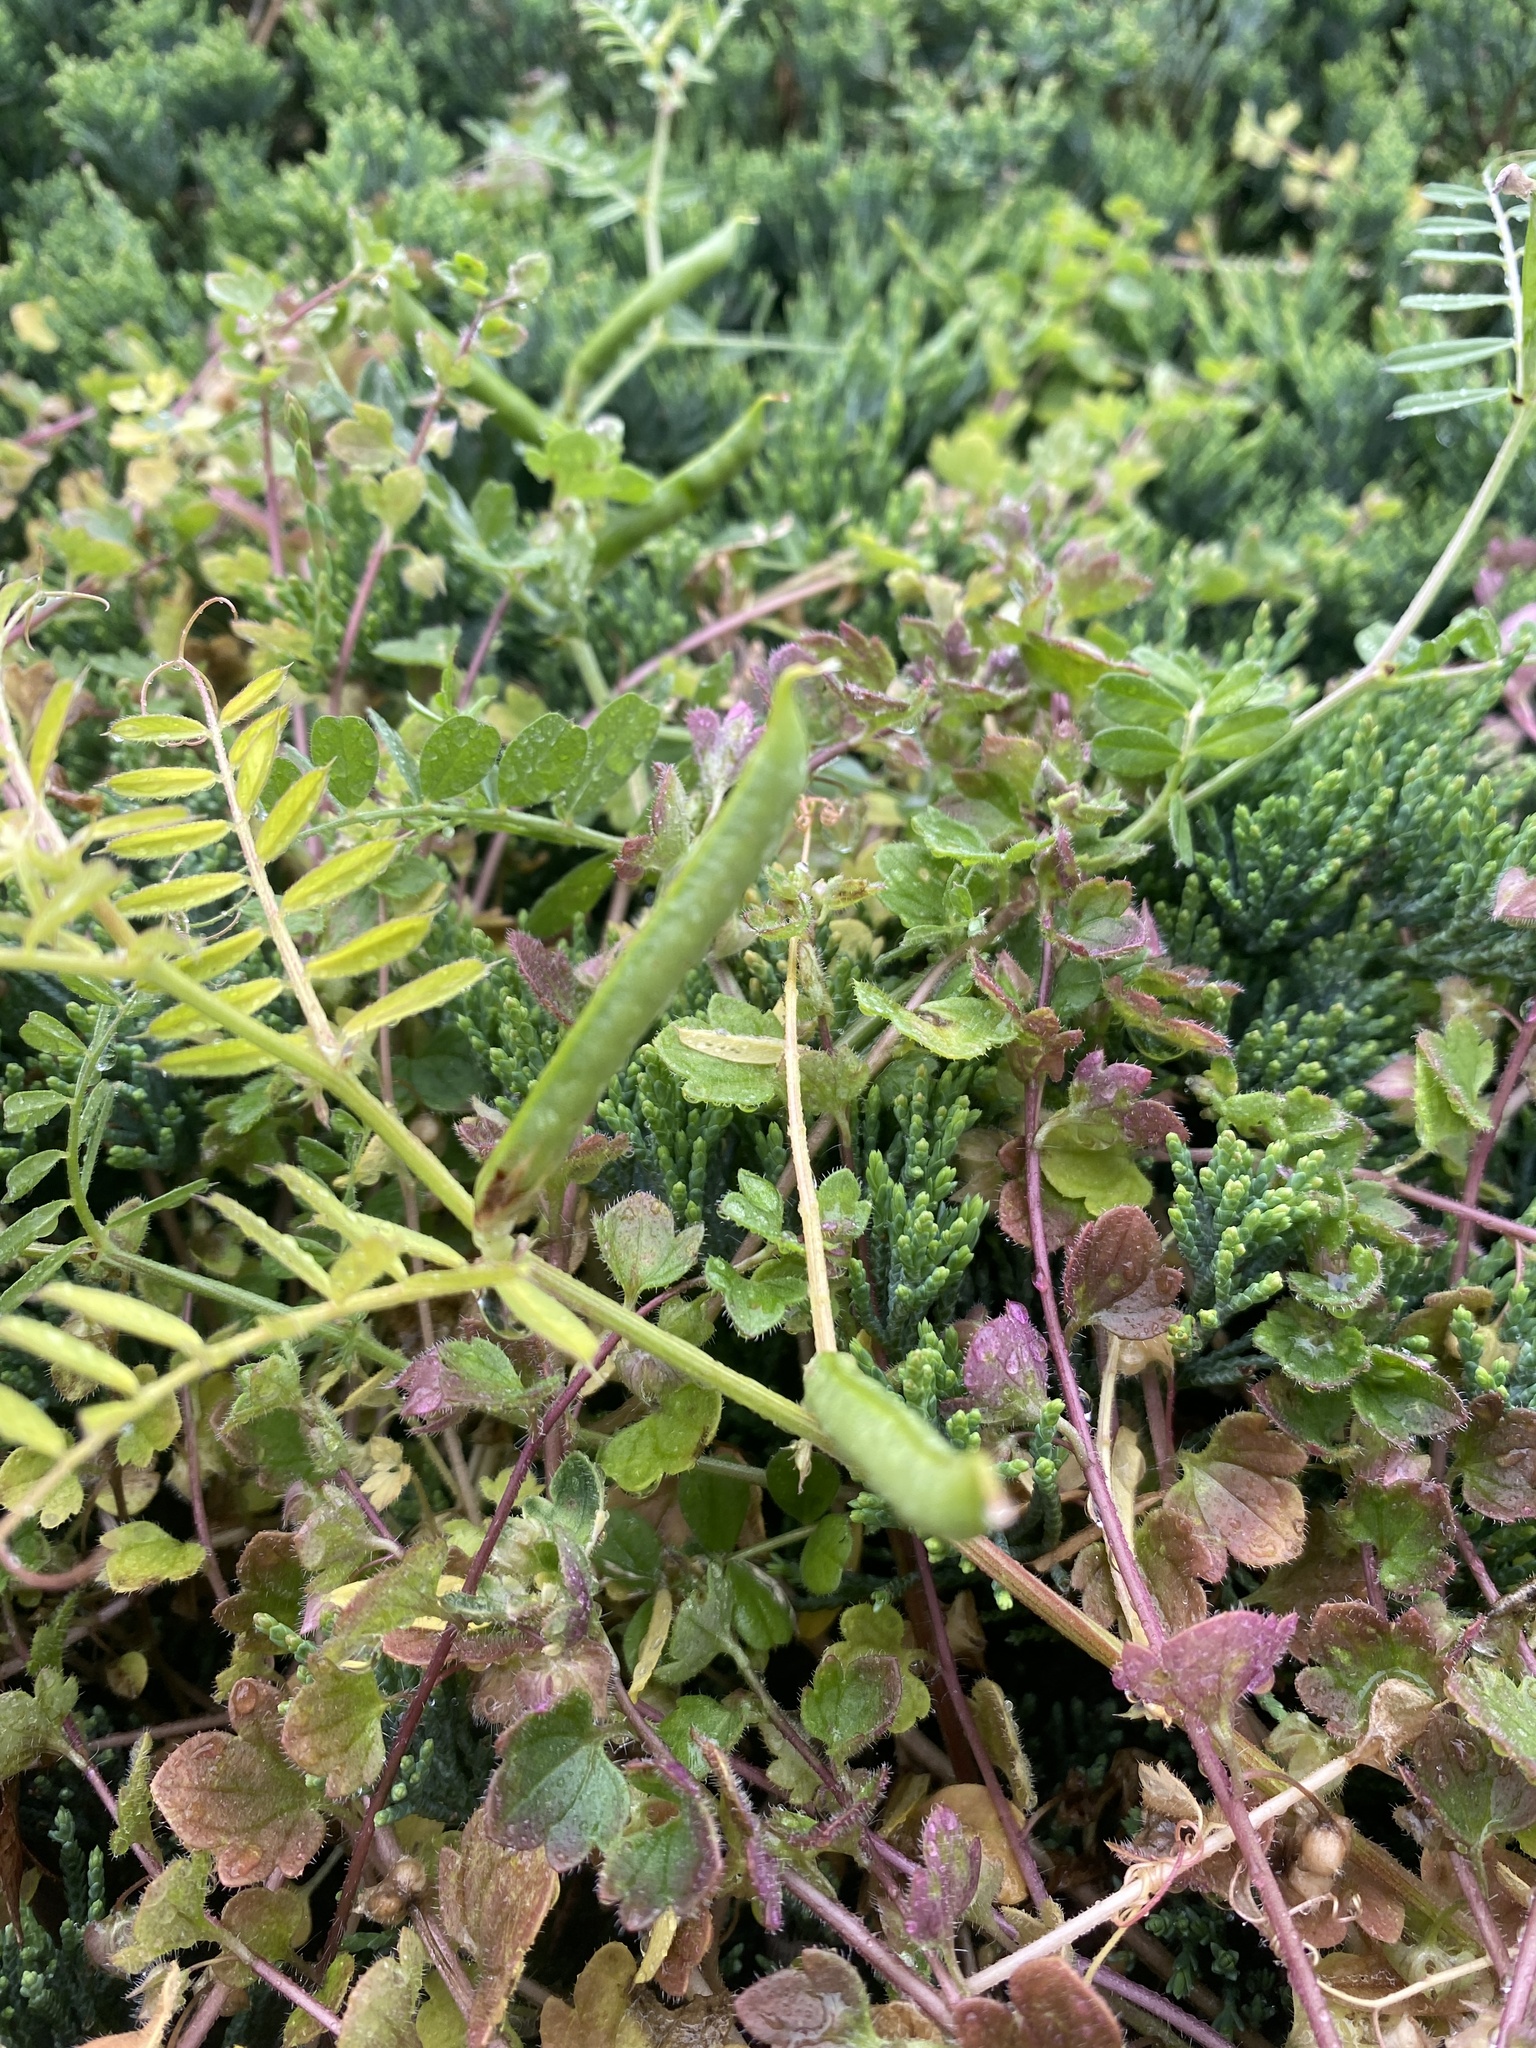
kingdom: Plantae
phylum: Tracheophyta
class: Magnoliopsida
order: Fabales
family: Fabaceae
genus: Vicia
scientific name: Vicia sativa
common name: Garden vetch
